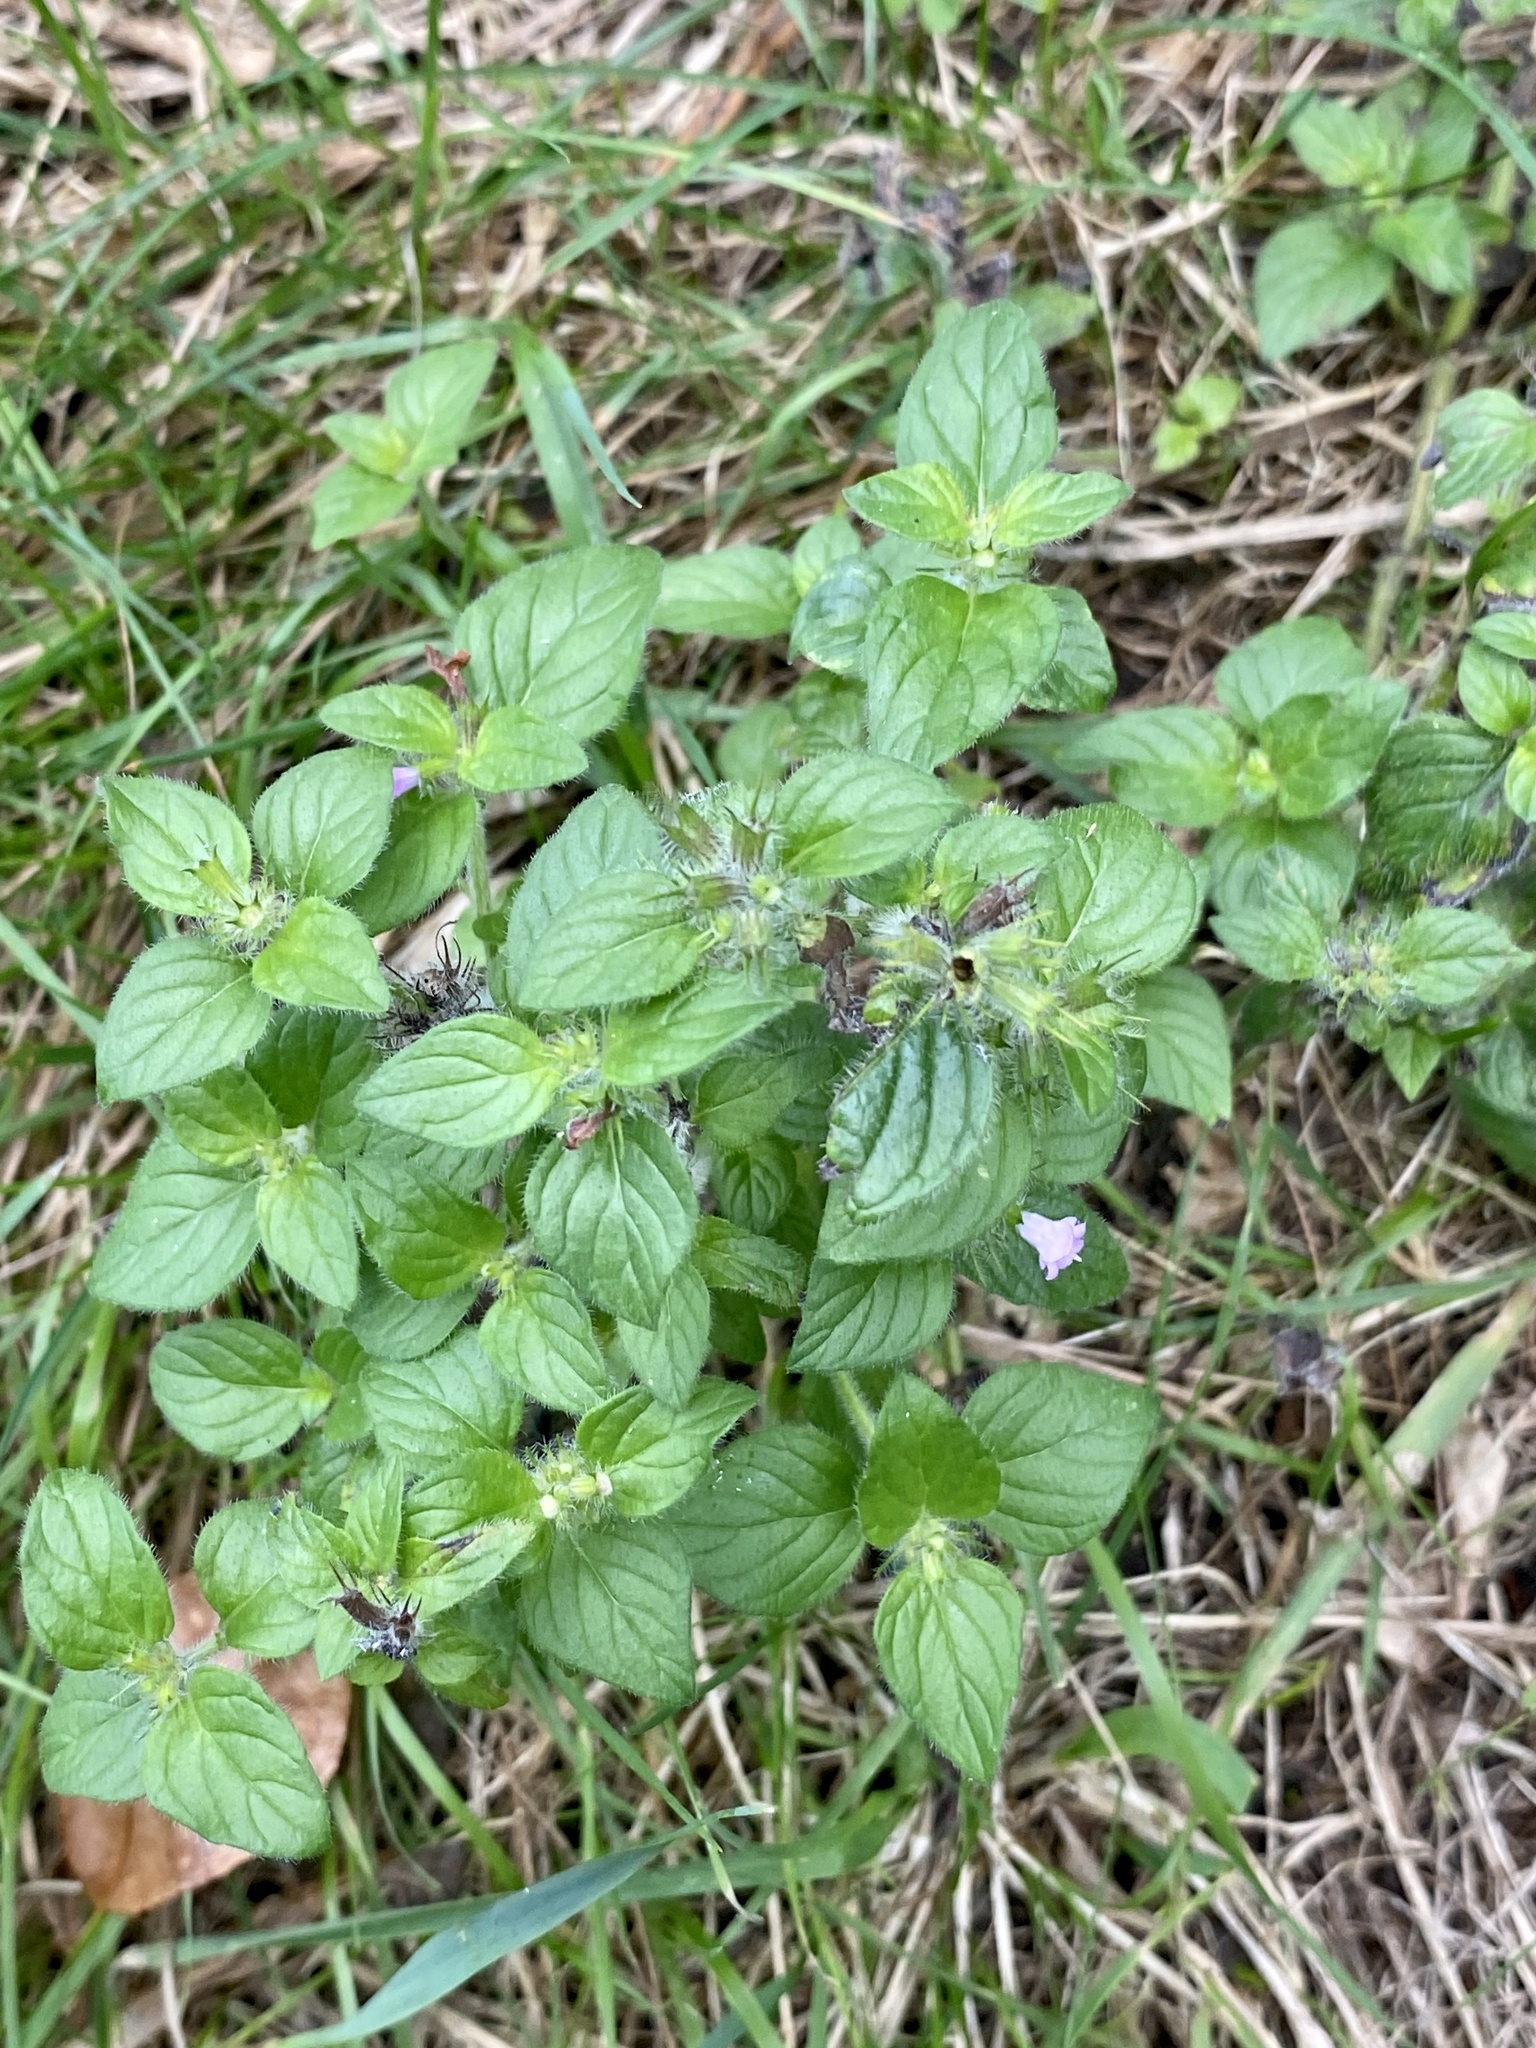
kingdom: Plantae
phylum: Tracheophyta
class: Magnoliopsida
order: Lamiales
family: Lamiaceae
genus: Clinopodium
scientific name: Clinopodium vulgare
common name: Wild basil
